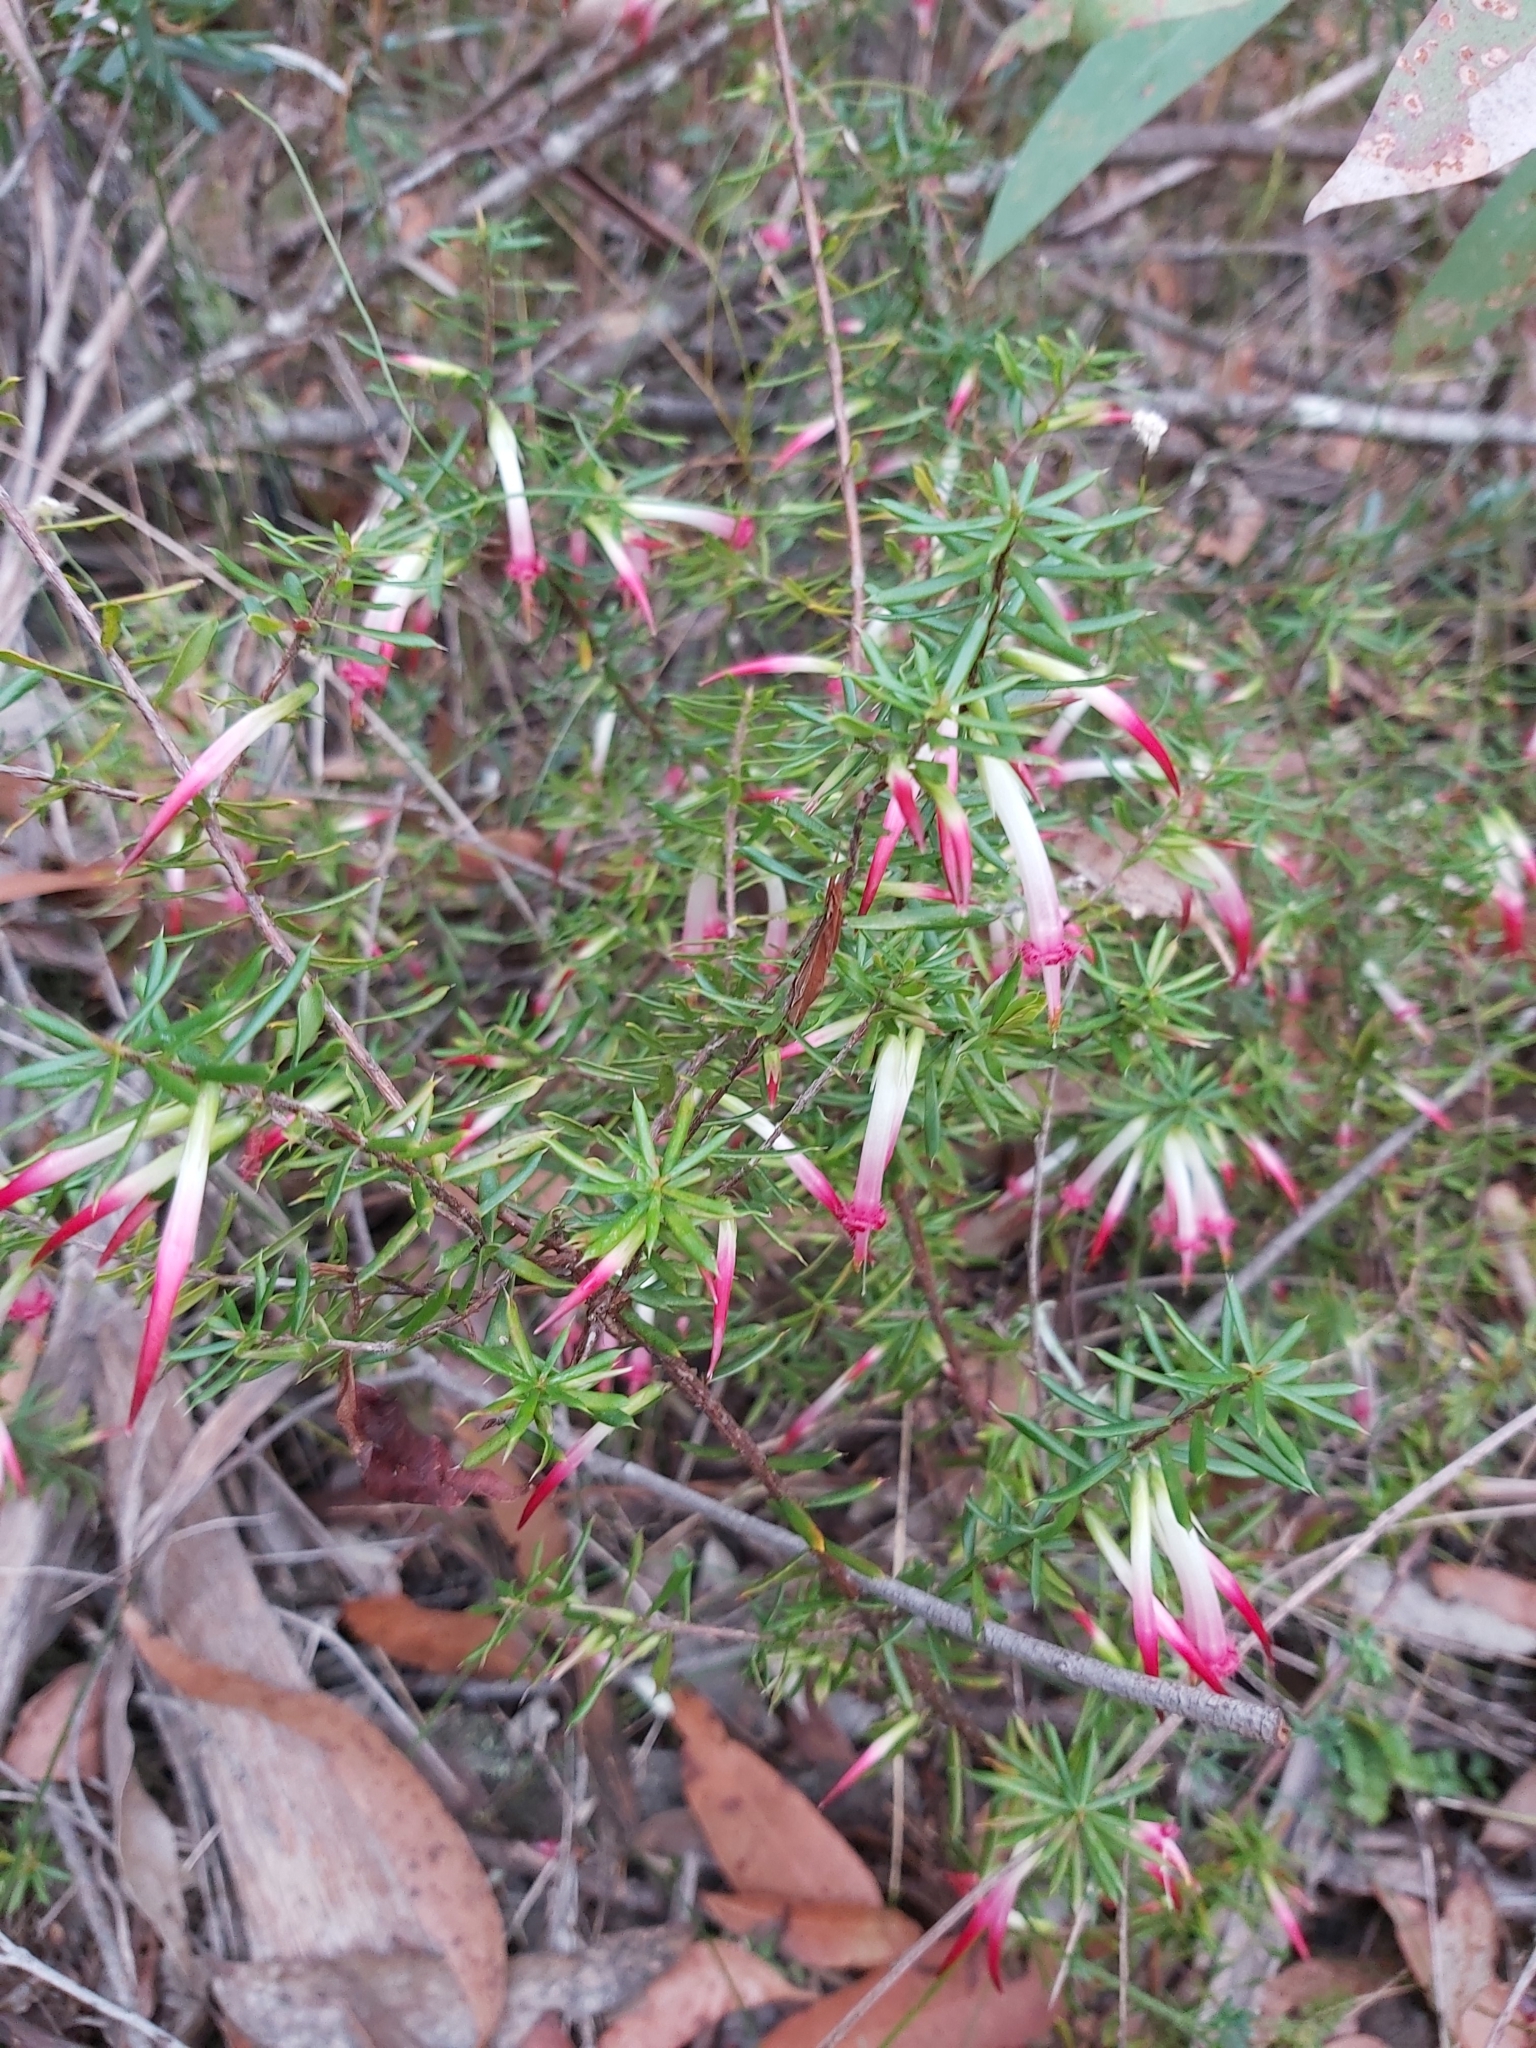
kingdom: Plantae
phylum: Tracheophyta
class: Magnoliopsida
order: Ericales
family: Ericaceae
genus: Styphelia
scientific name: Styphelia tubiflora
